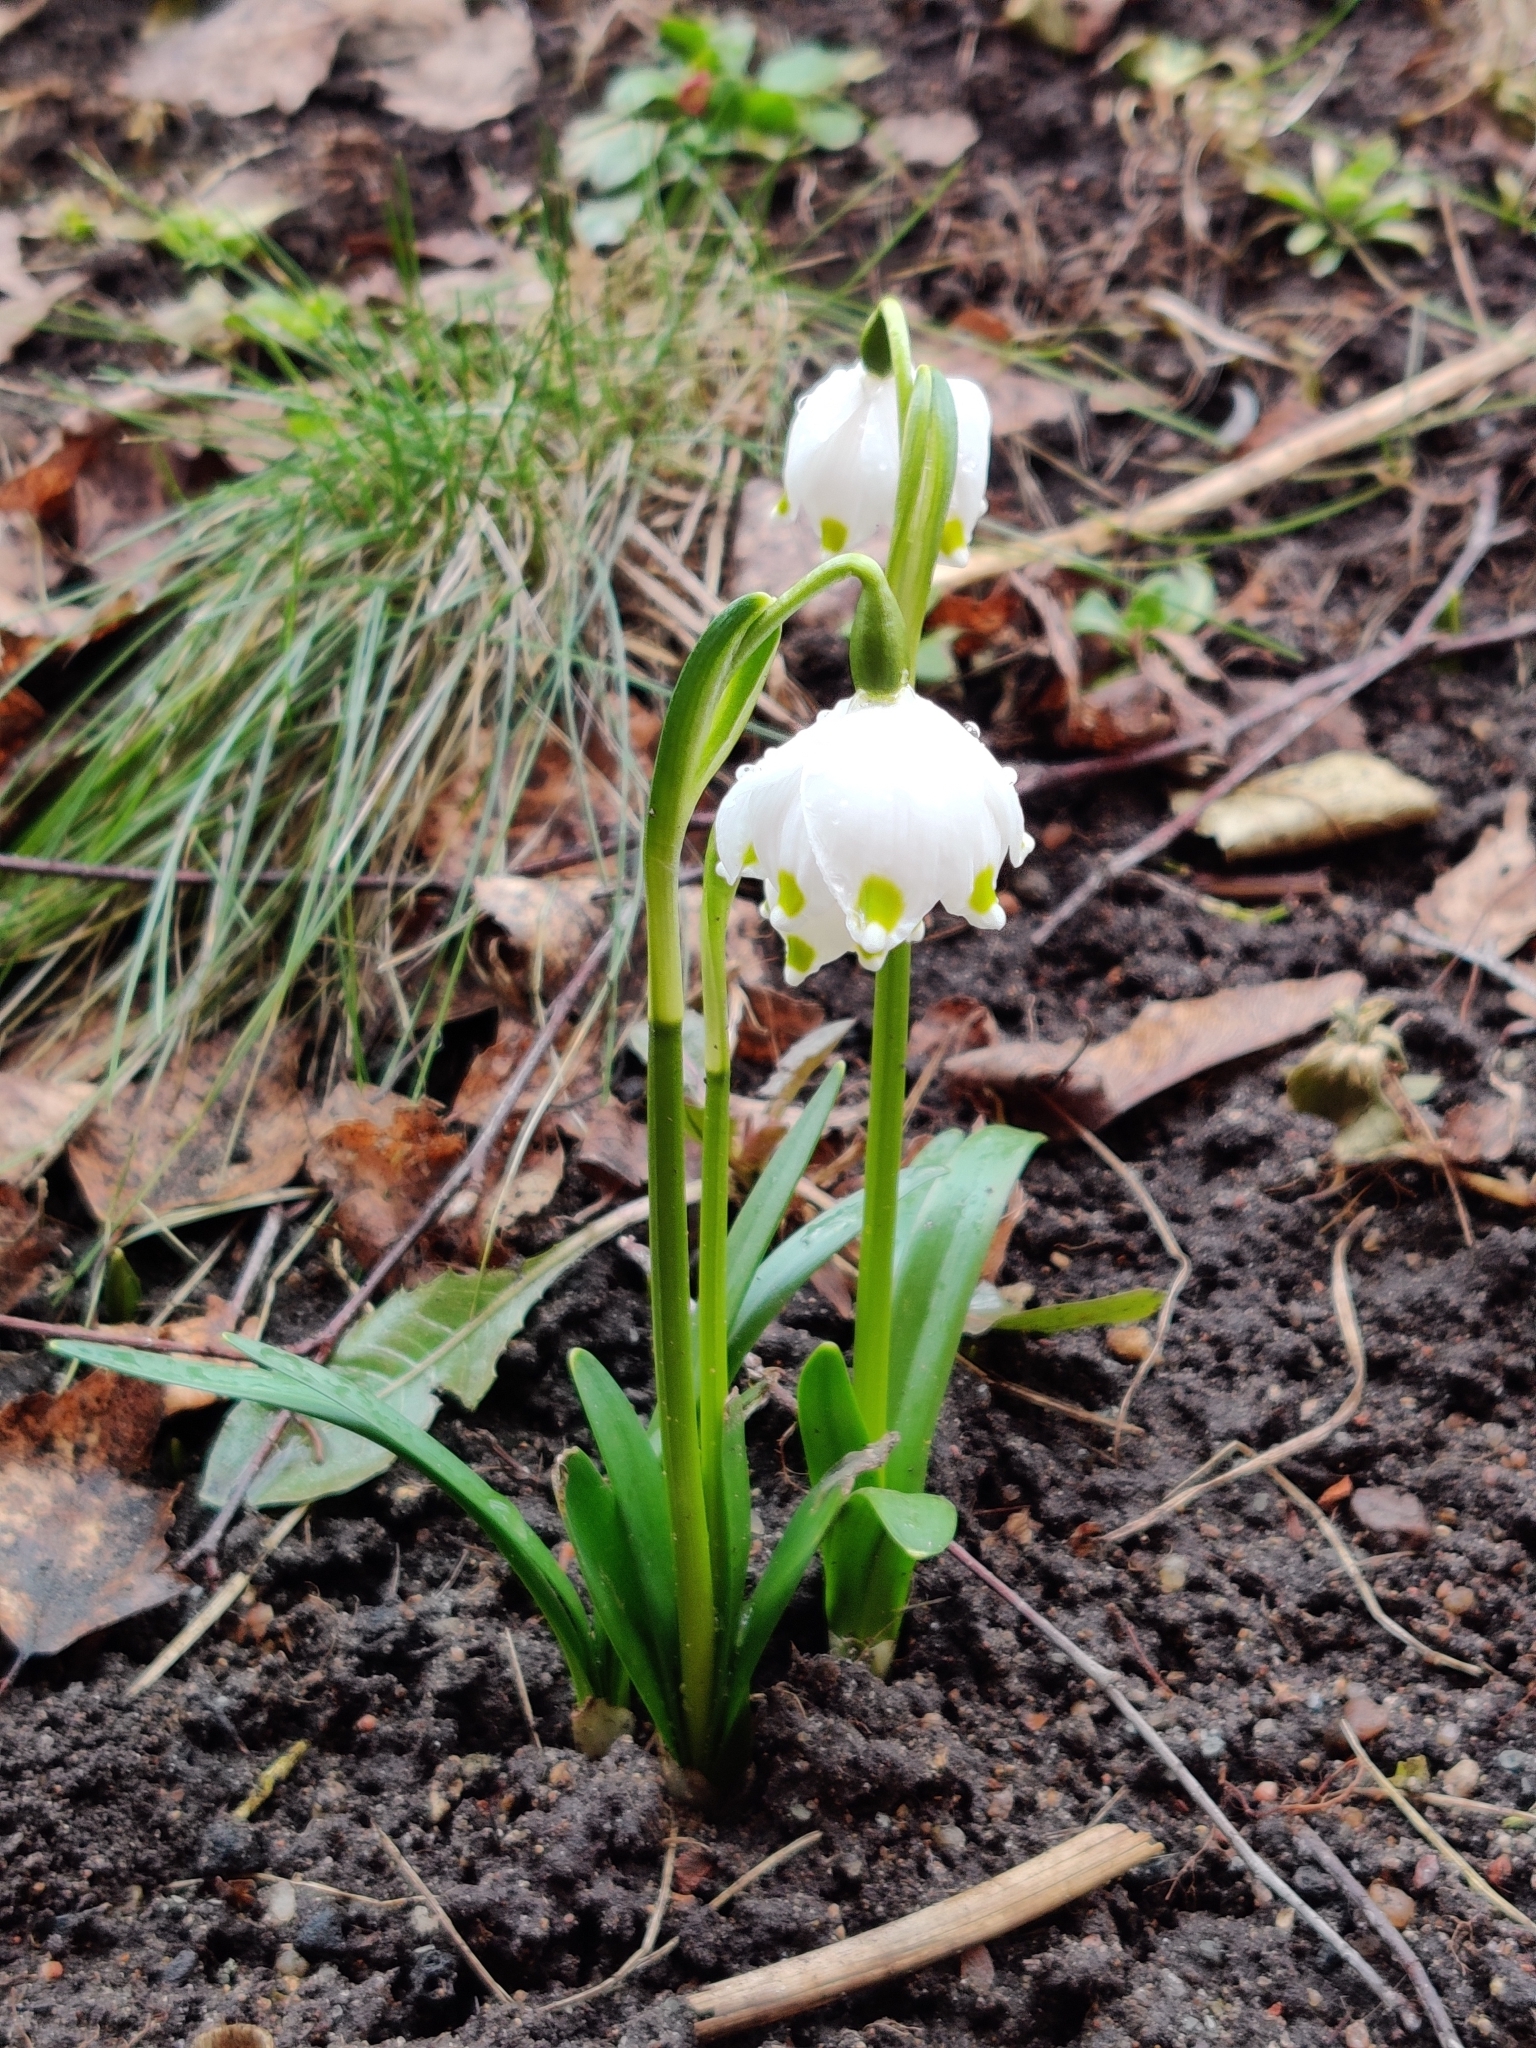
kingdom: Plantae
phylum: Tracheophyta
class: Liliopsida
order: Asparagales
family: Amaryllidaceae
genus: Leucojum
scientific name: Leucojum vernum
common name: Spring snowflake
